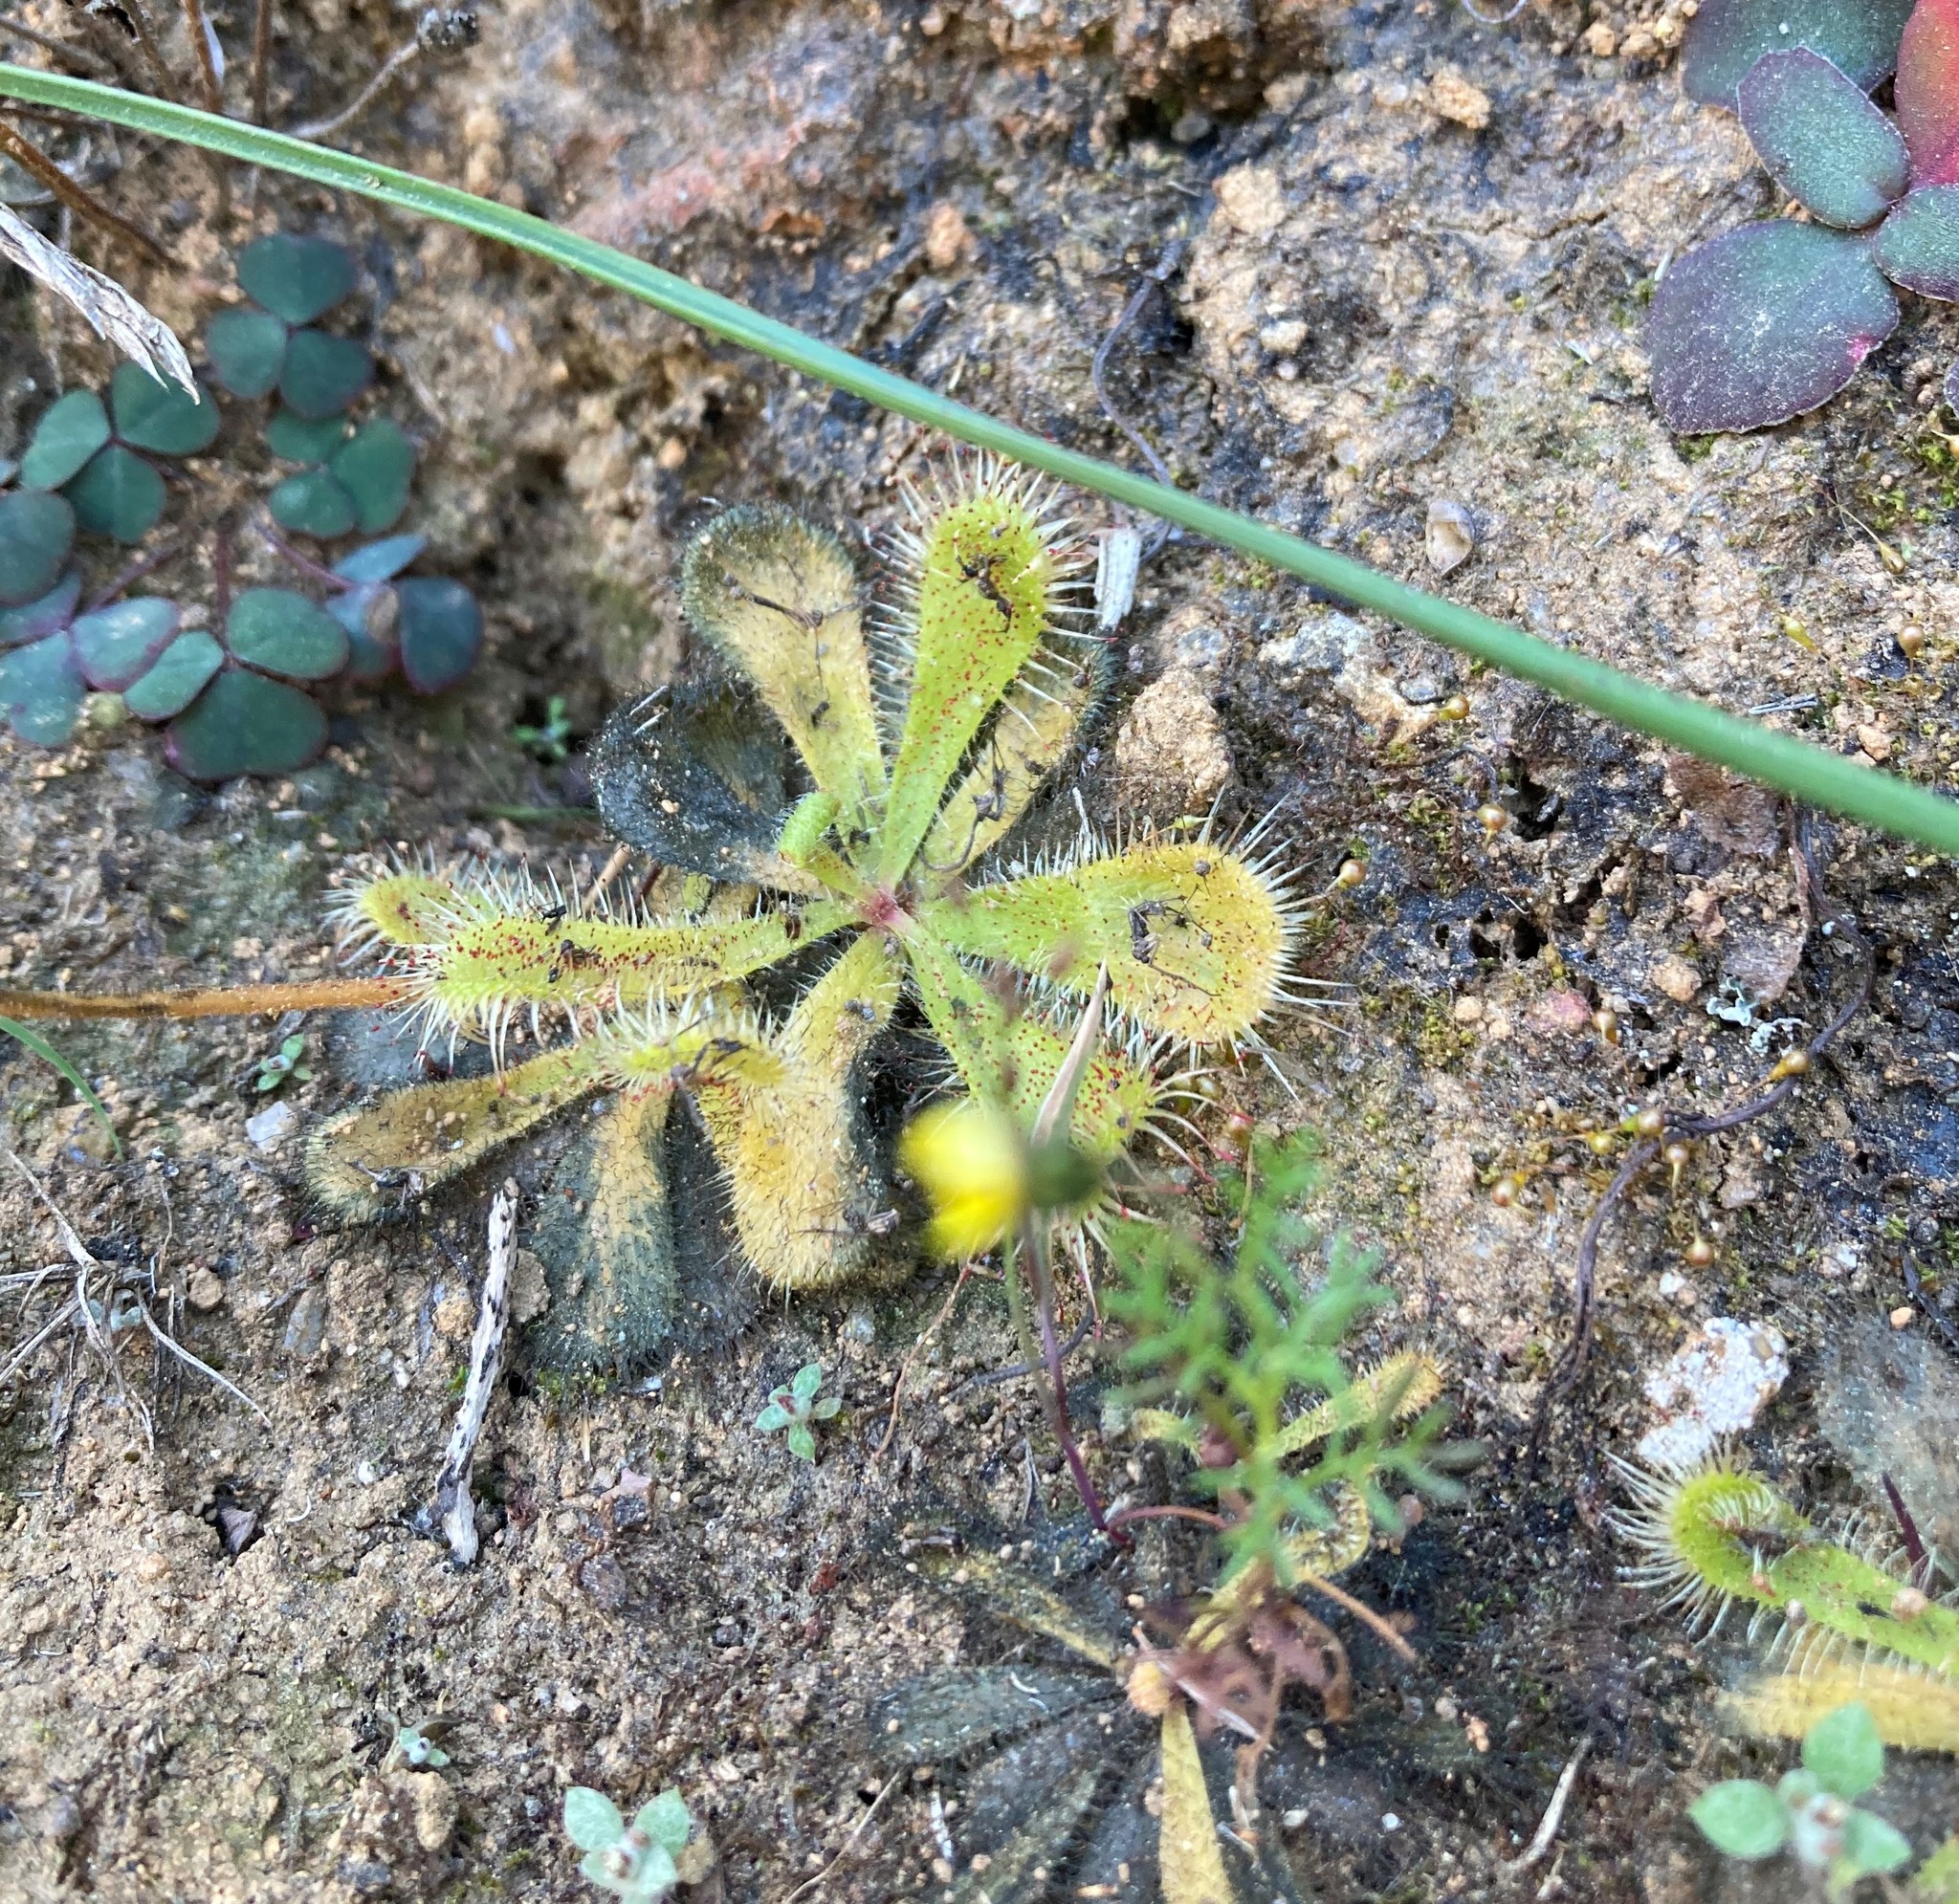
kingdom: Plantae
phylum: Tracheophyta
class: Magnoliopsida
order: Caryophyllales
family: Droseraceae
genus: Drosera
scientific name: Drosera pauciflora
